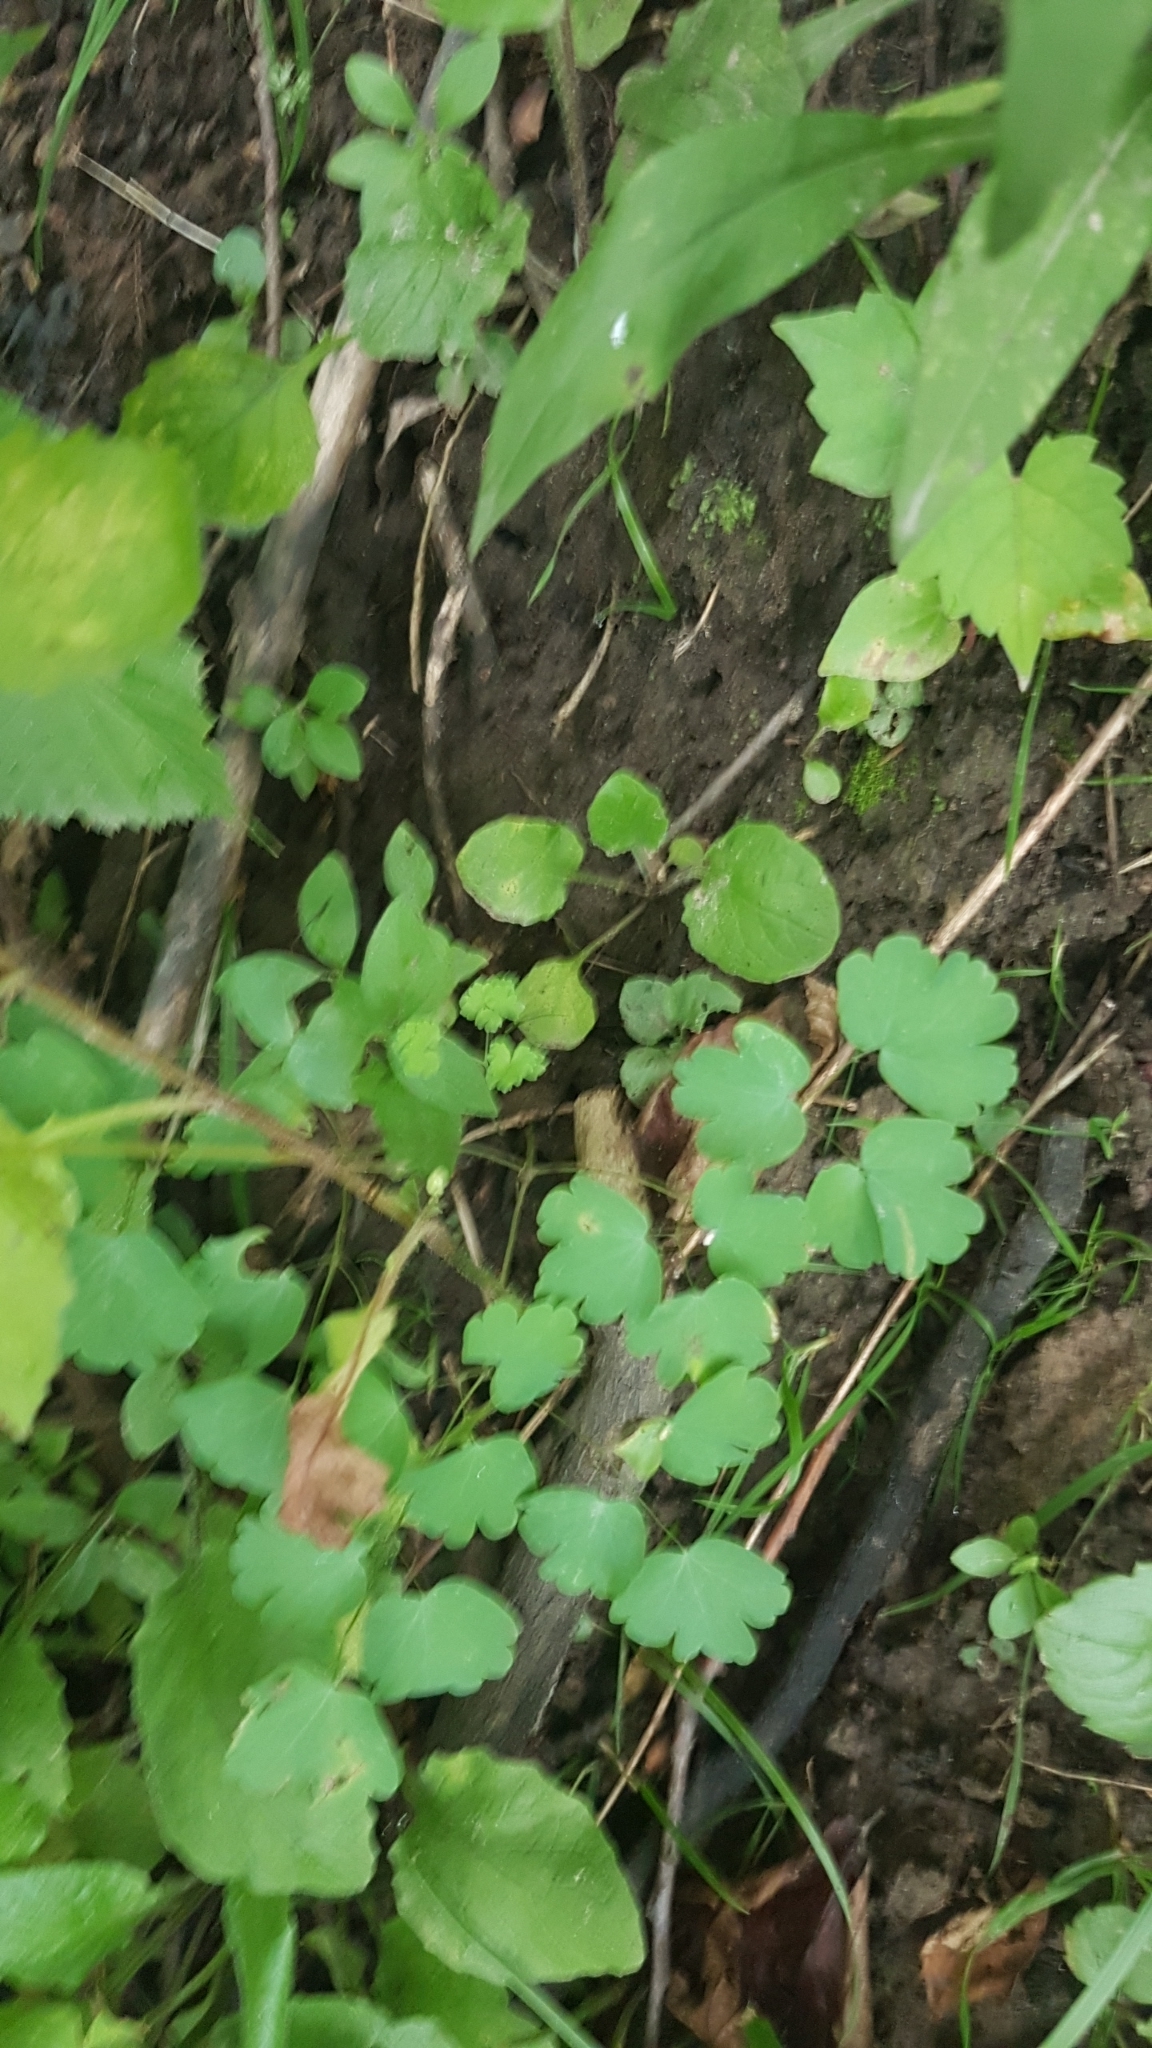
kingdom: Plantae
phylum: Tracheophyta
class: Magnoliopsida
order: Ranunculales
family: Ranunculaceae
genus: Thalictrum
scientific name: Thalictrum dioicum
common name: Early meadow-rue
